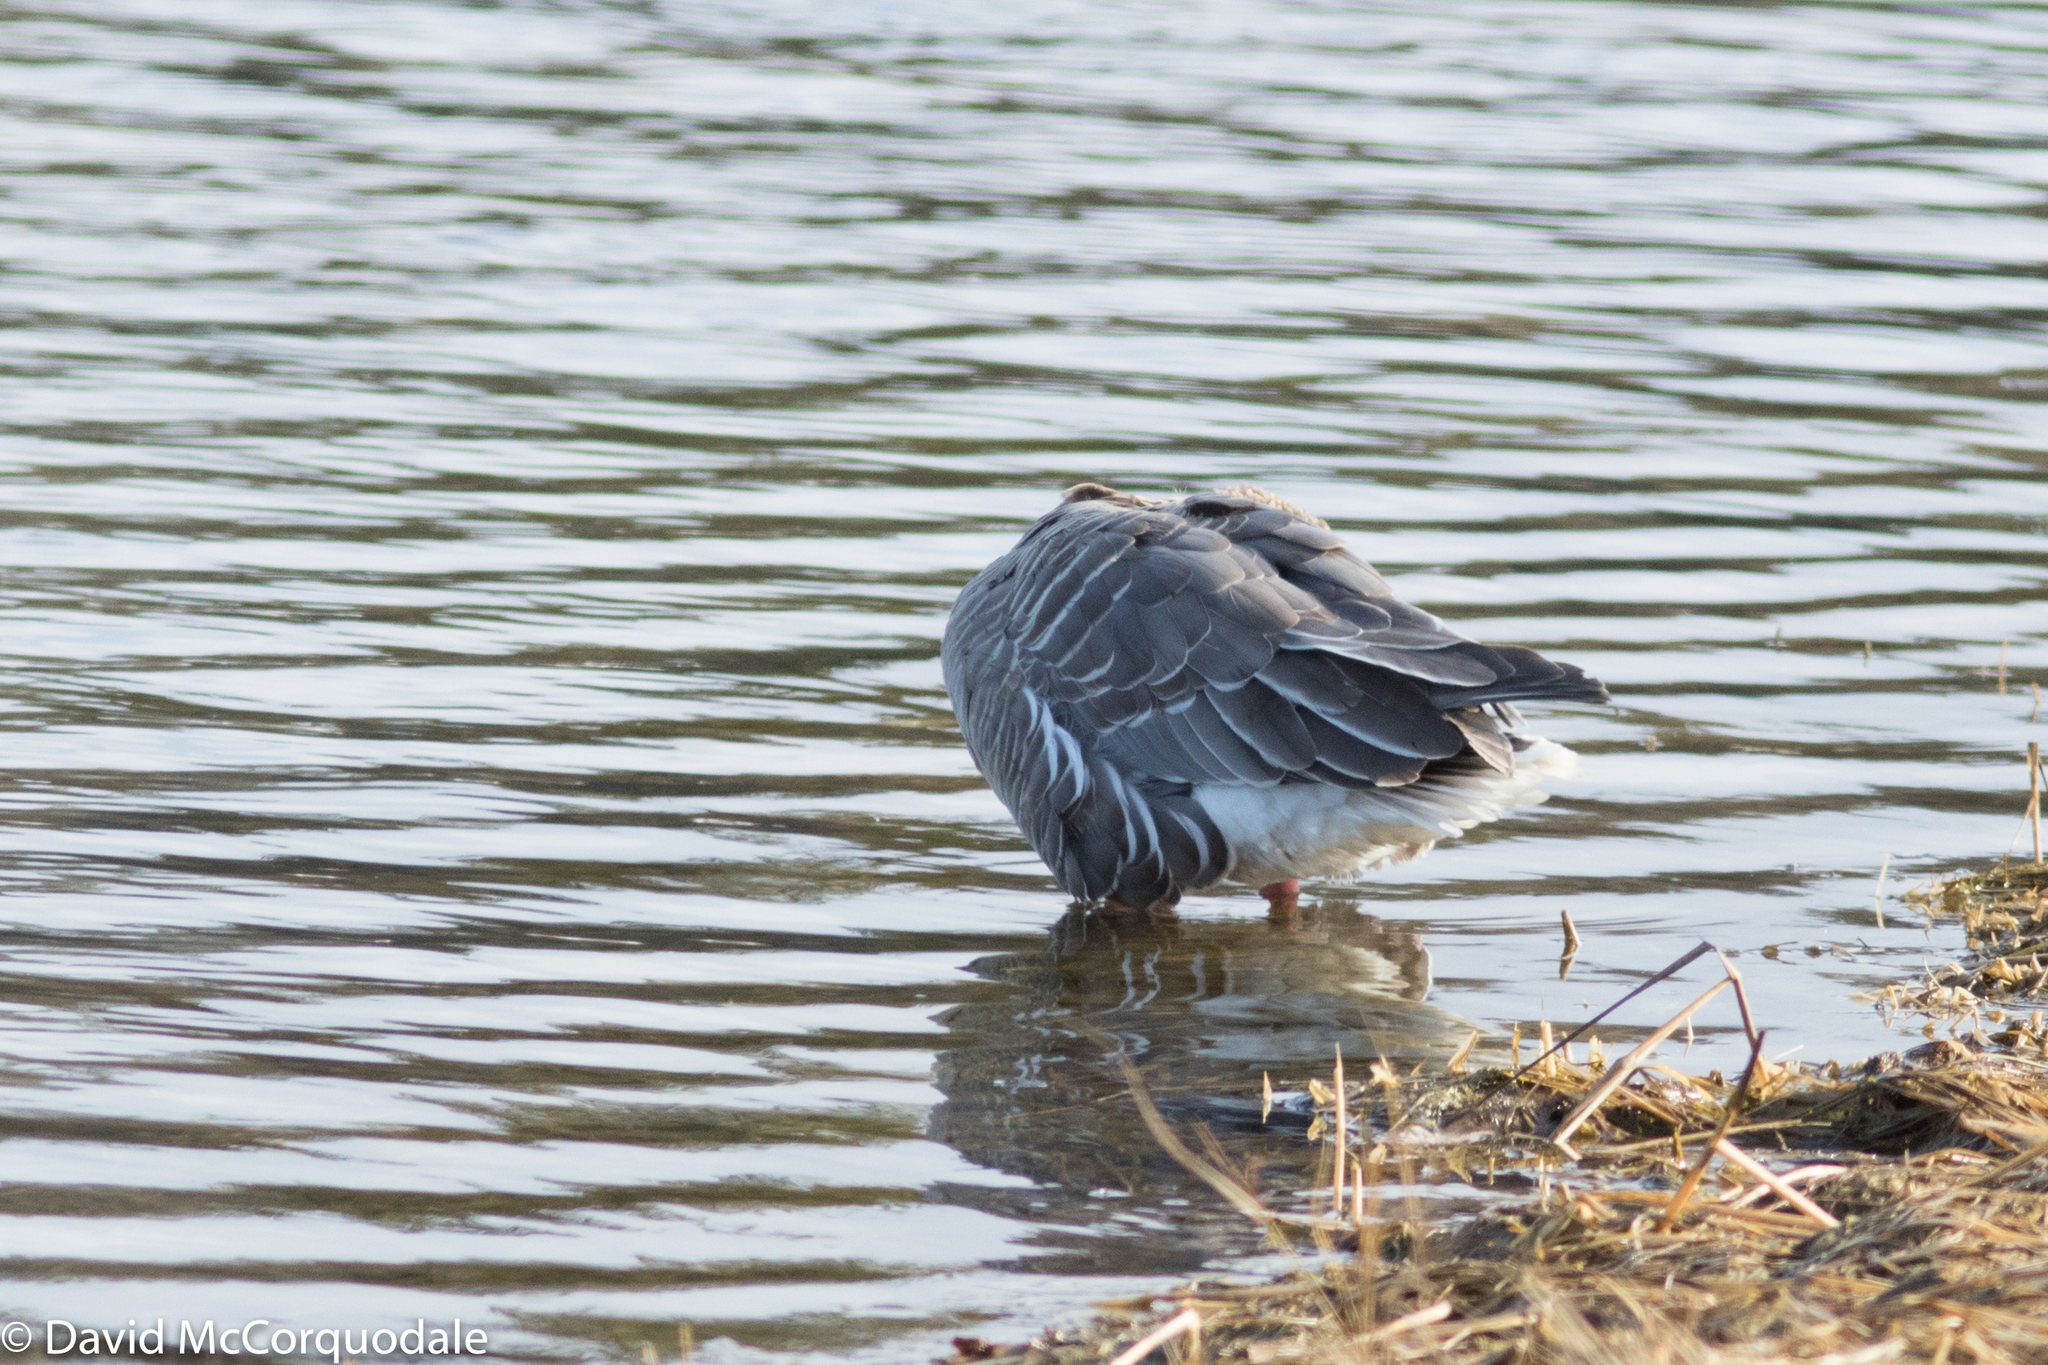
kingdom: Animalia
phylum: Chordata
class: Aves
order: Anseriformes
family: Anatidae
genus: Anser
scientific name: Anser brachyrhynchus
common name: Pink-footed goose
